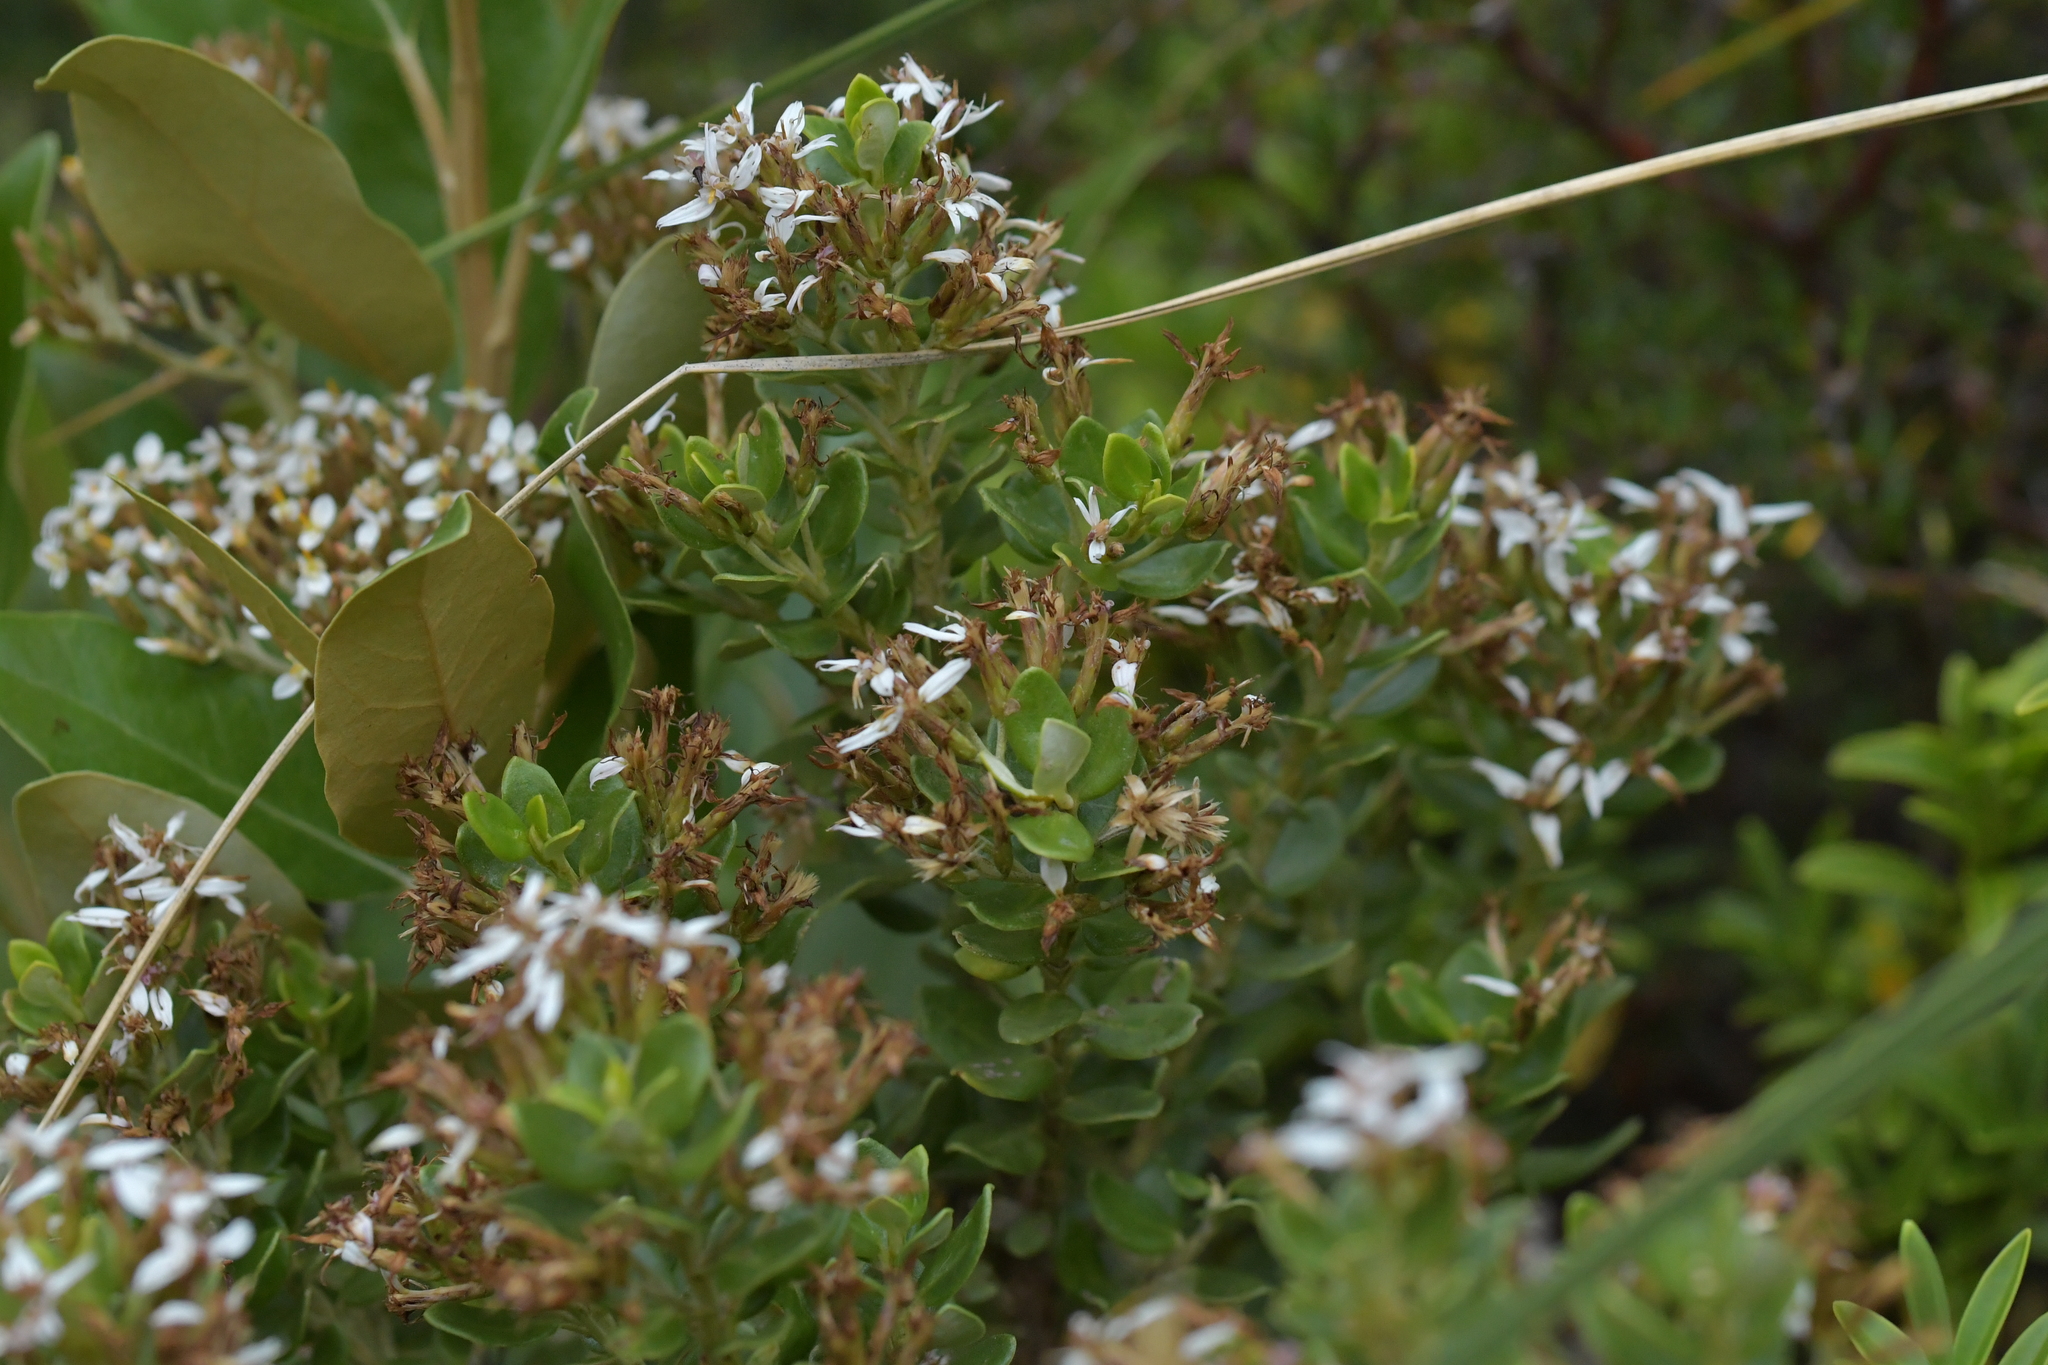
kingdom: Plantae
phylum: Tracheophyta
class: Magnoliopsida
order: Asterales
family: Asteraceae
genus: Olearia
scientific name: Olearia nummularifolia
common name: Sticky daisybush
